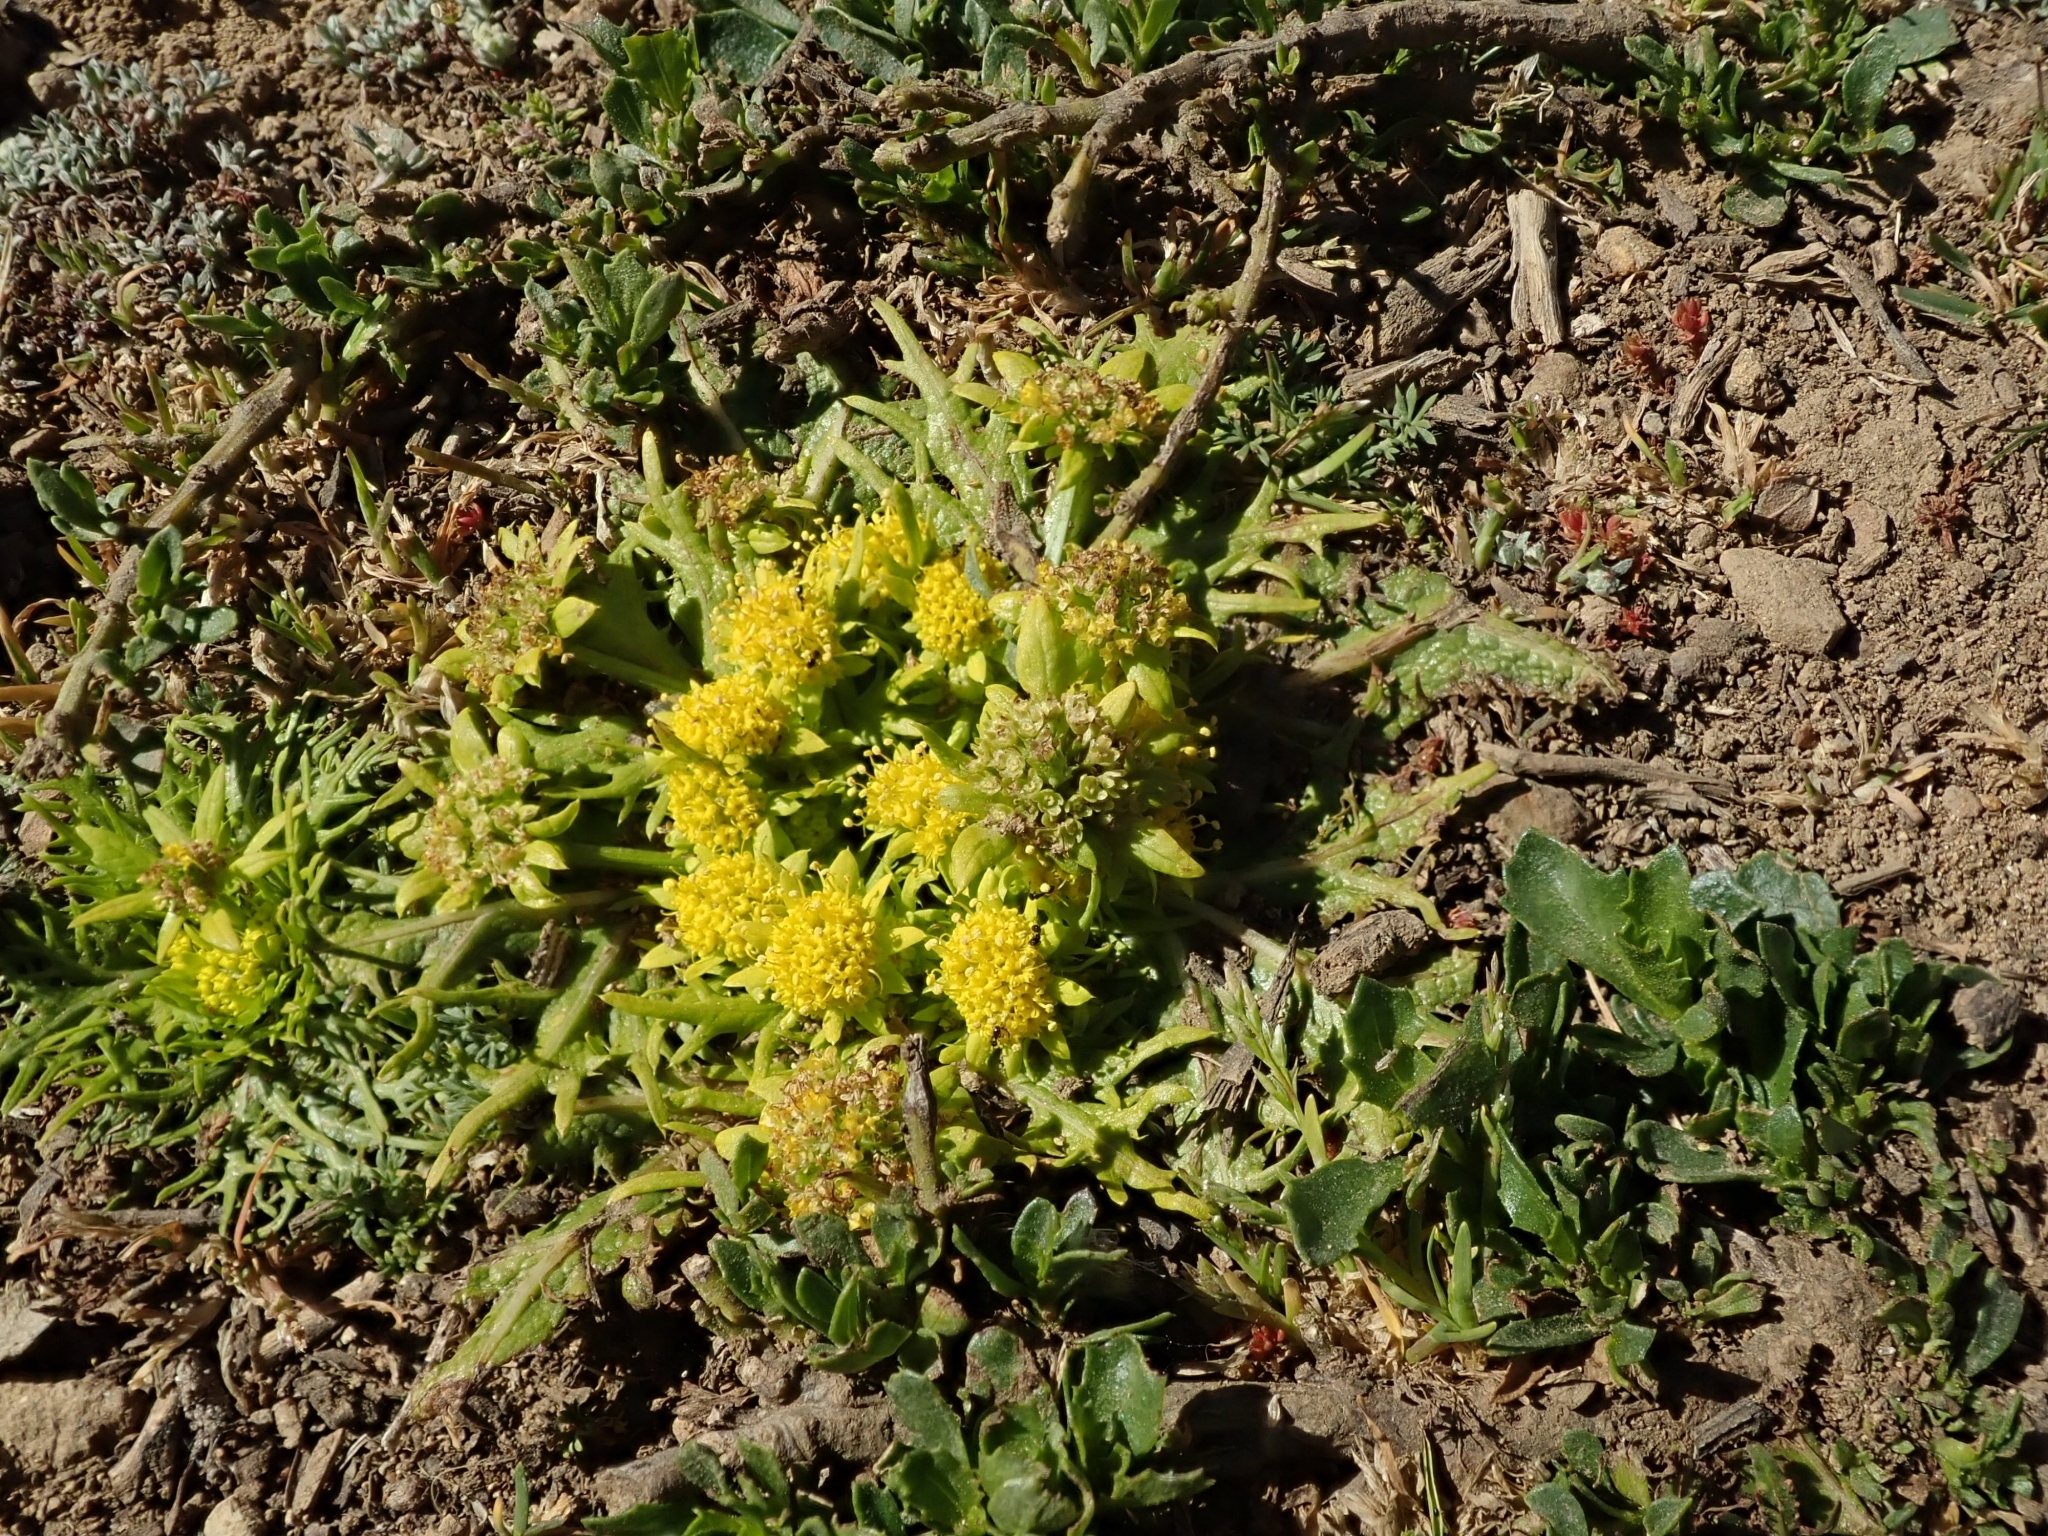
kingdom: Plantae
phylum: Tracheophyta
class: Magnoliopsida
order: Apiales
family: Apiaceae
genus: Sanicula
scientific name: Sanicula arctopoides
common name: Footsteps-of-spring
